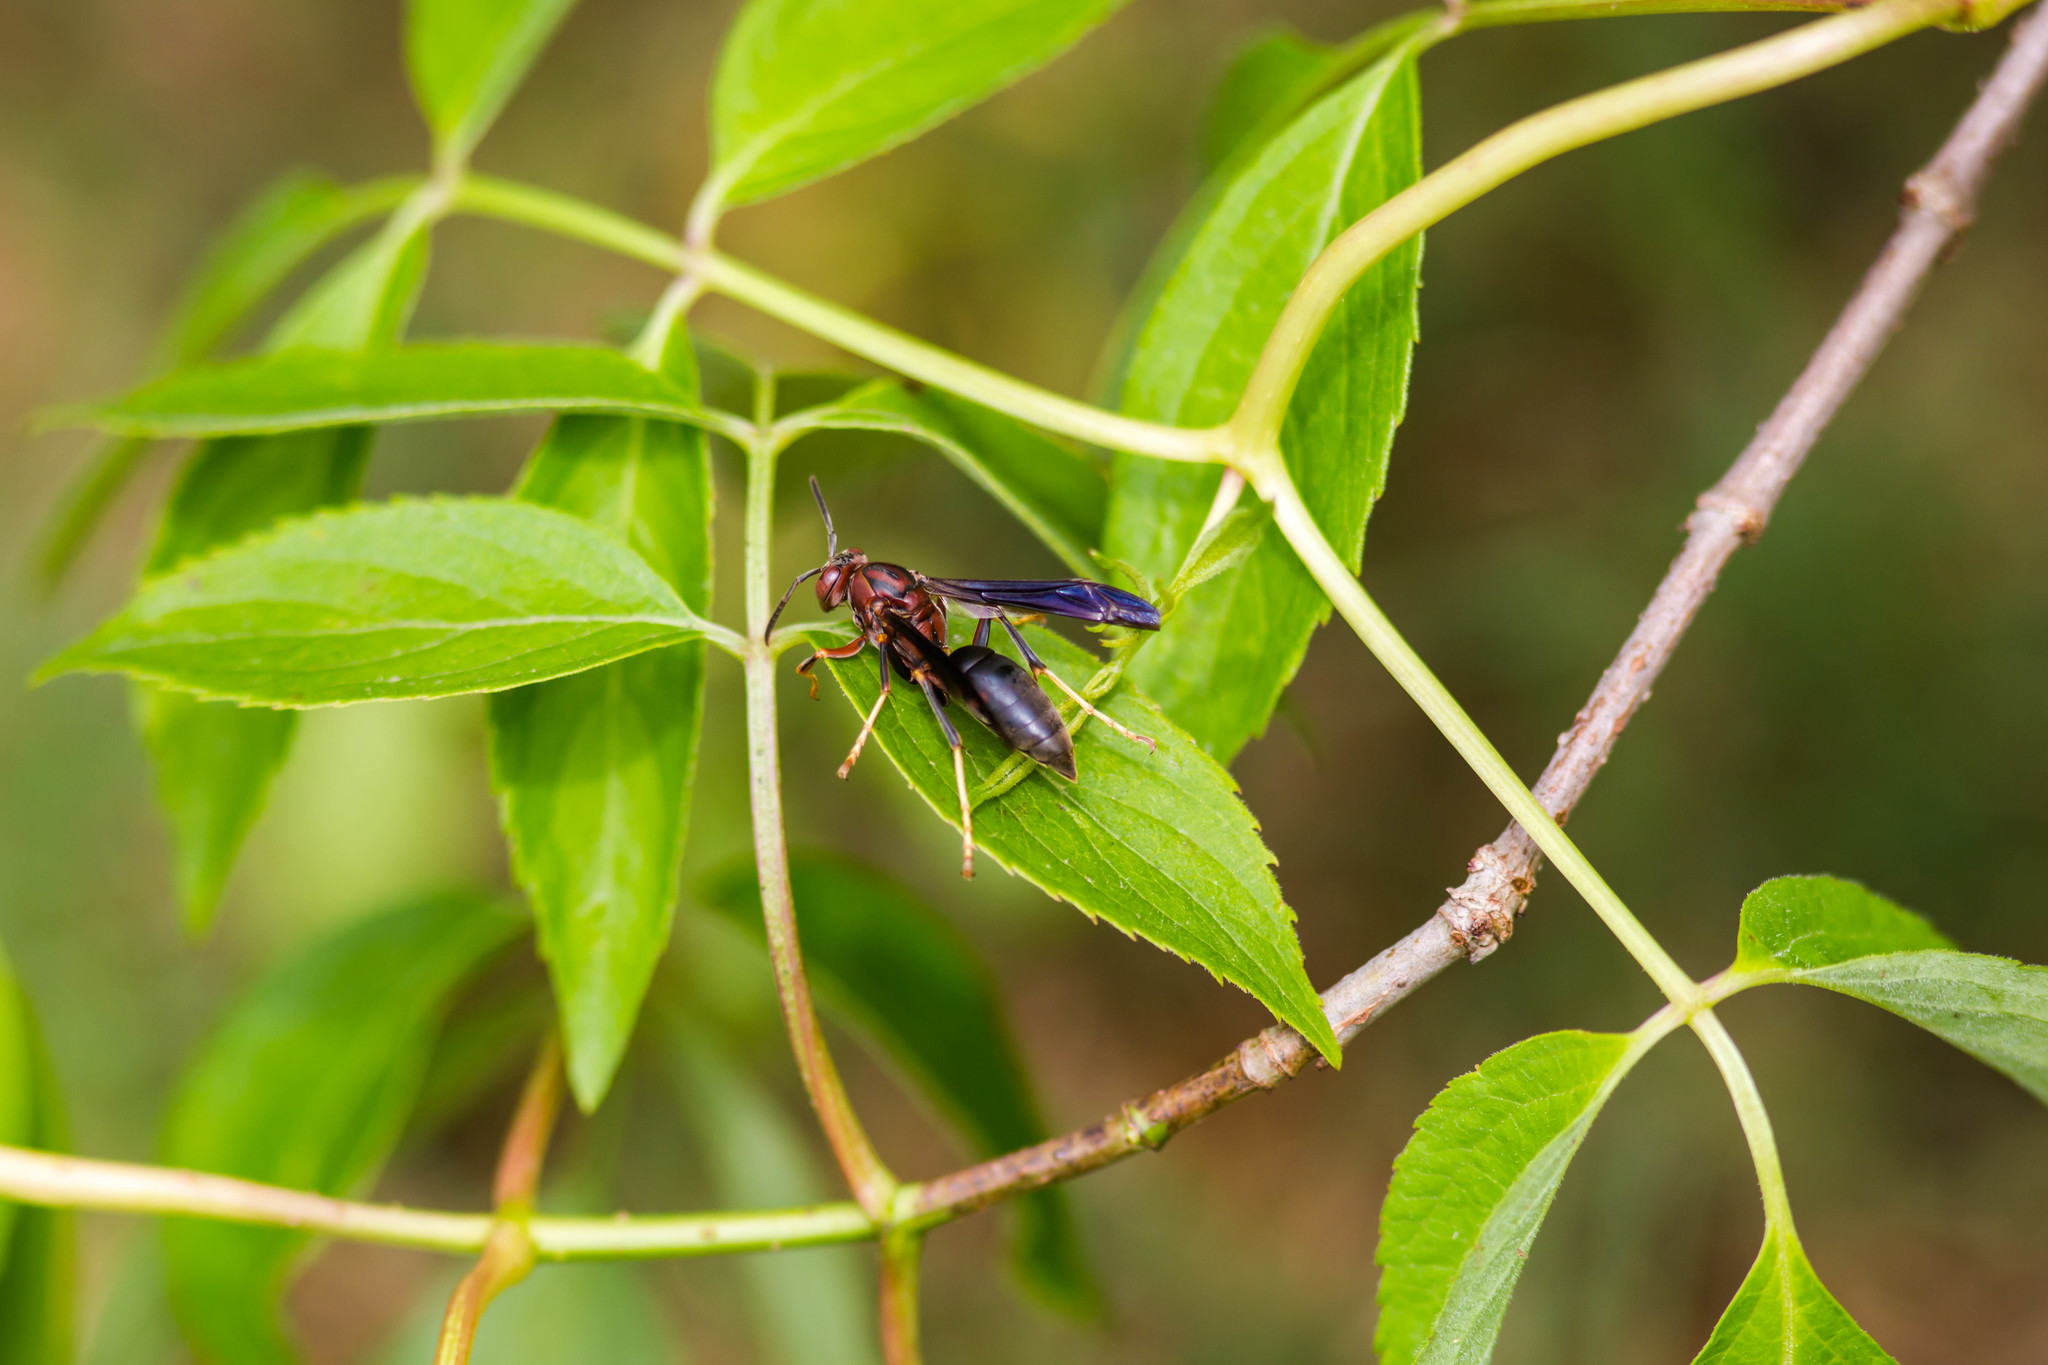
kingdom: Animalia
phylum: Arthropoda
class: Insecta
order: Hymenoptera
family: Eumenidae
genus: Polistes
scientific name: Polistes metricus
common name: Metric paper wasp
